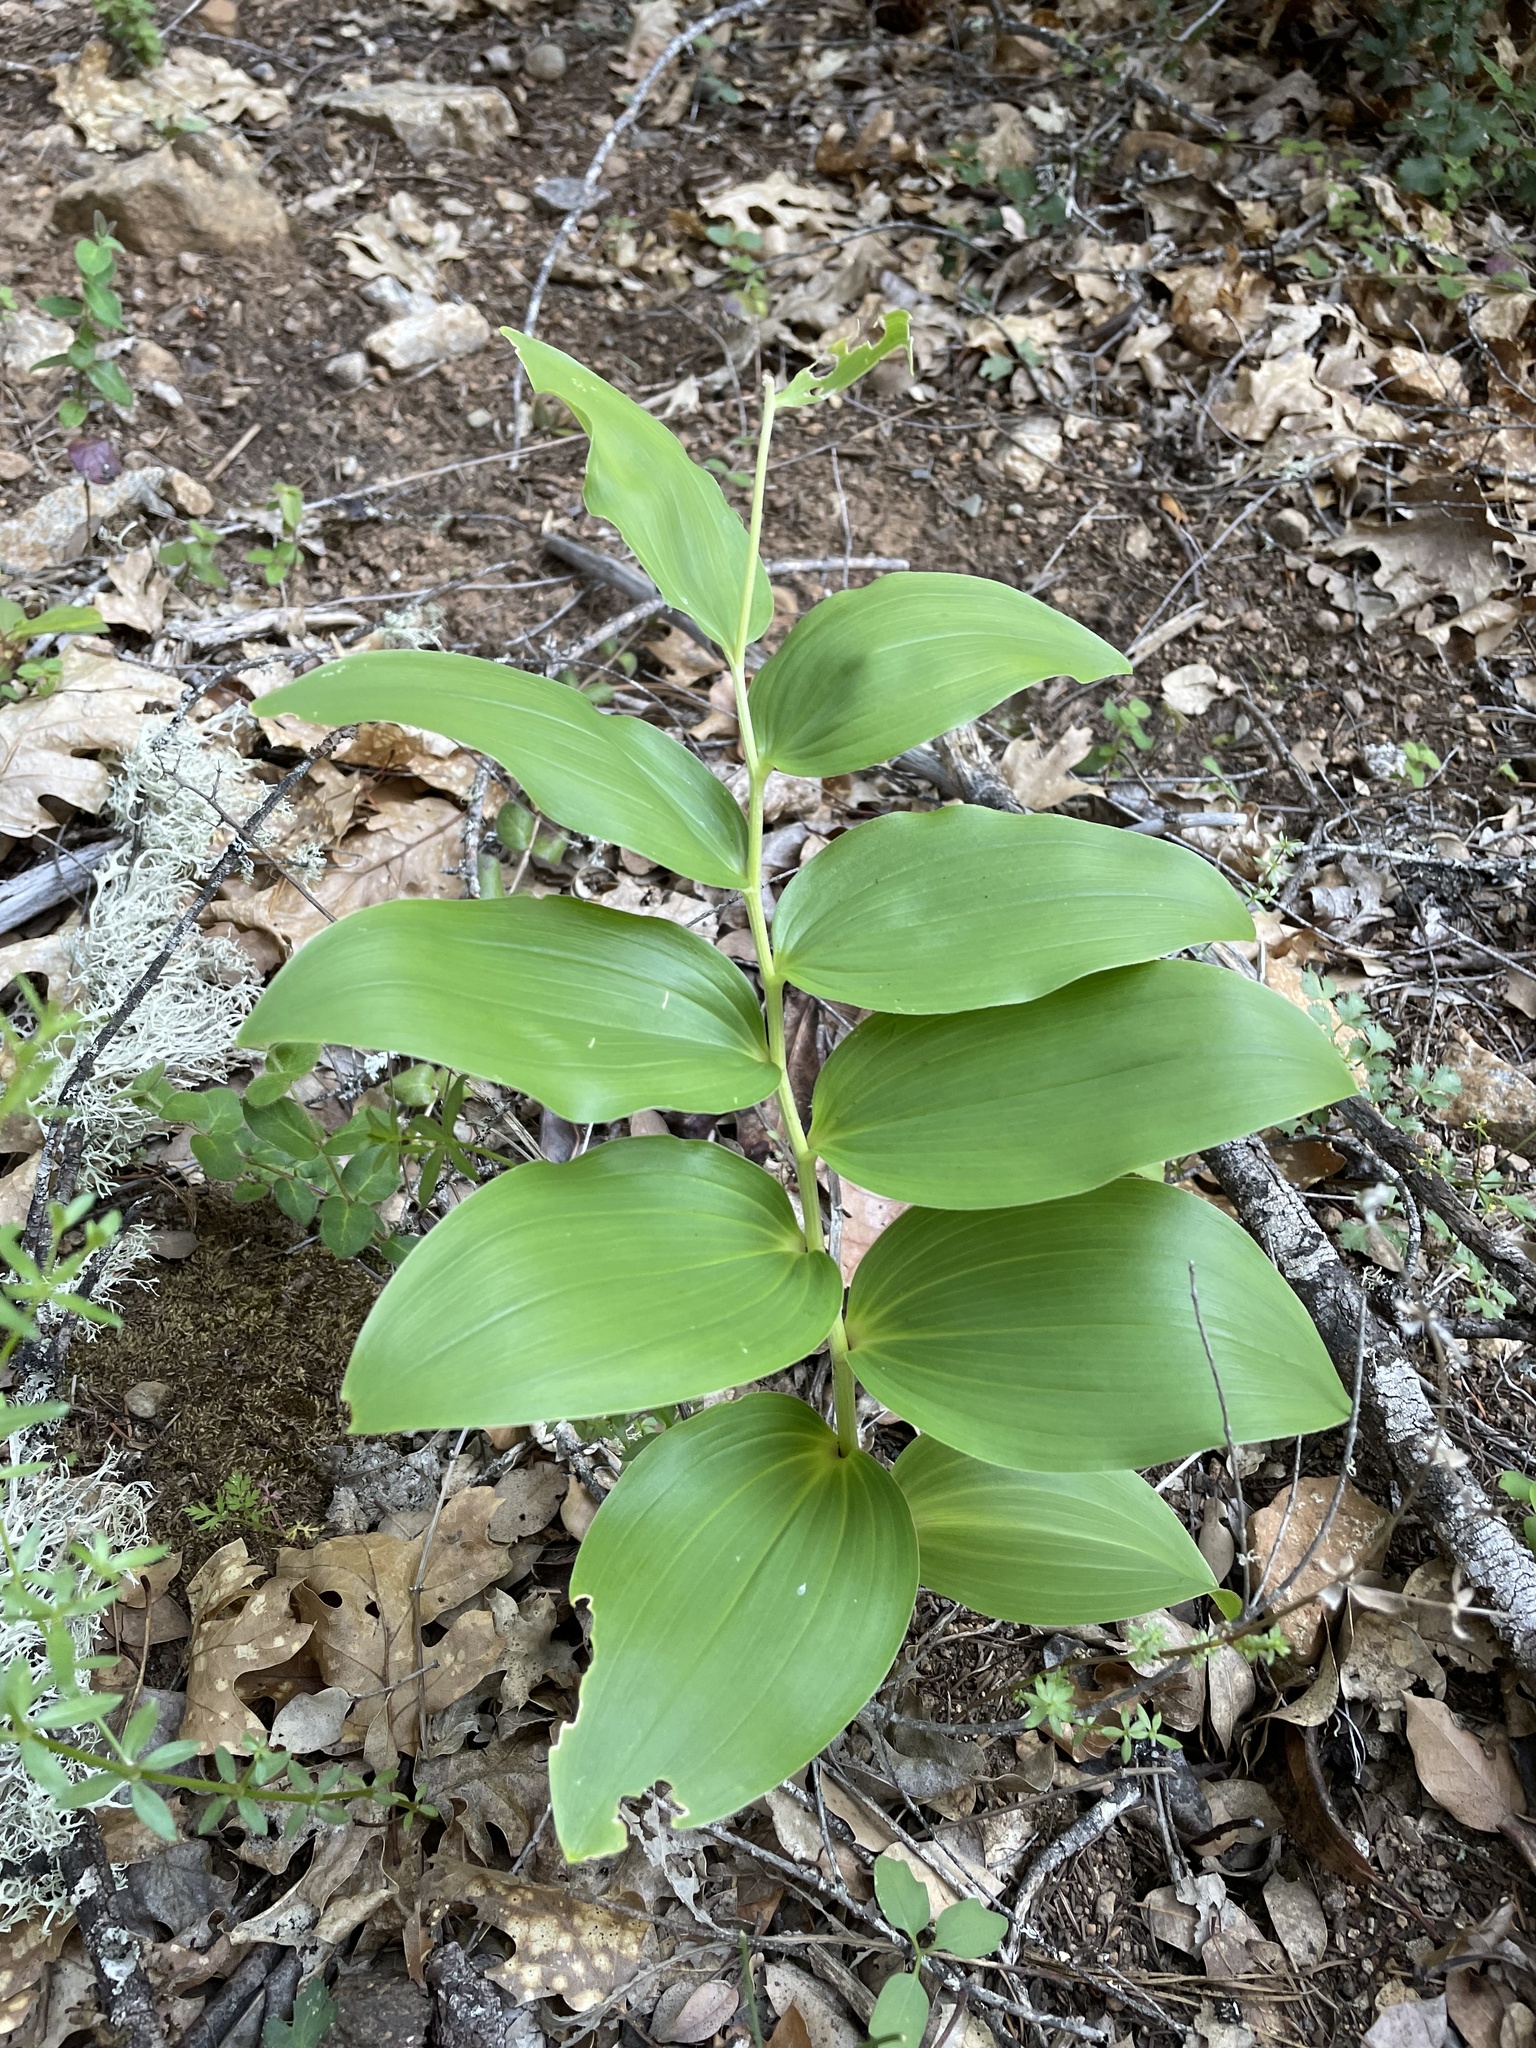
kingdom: Plantae
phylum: Tracheophyta
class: Liliopsida
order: Asparagales
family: Asparagaceae
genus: Maianthemum
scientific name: Maianthemum racemosum
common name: False spikenard
